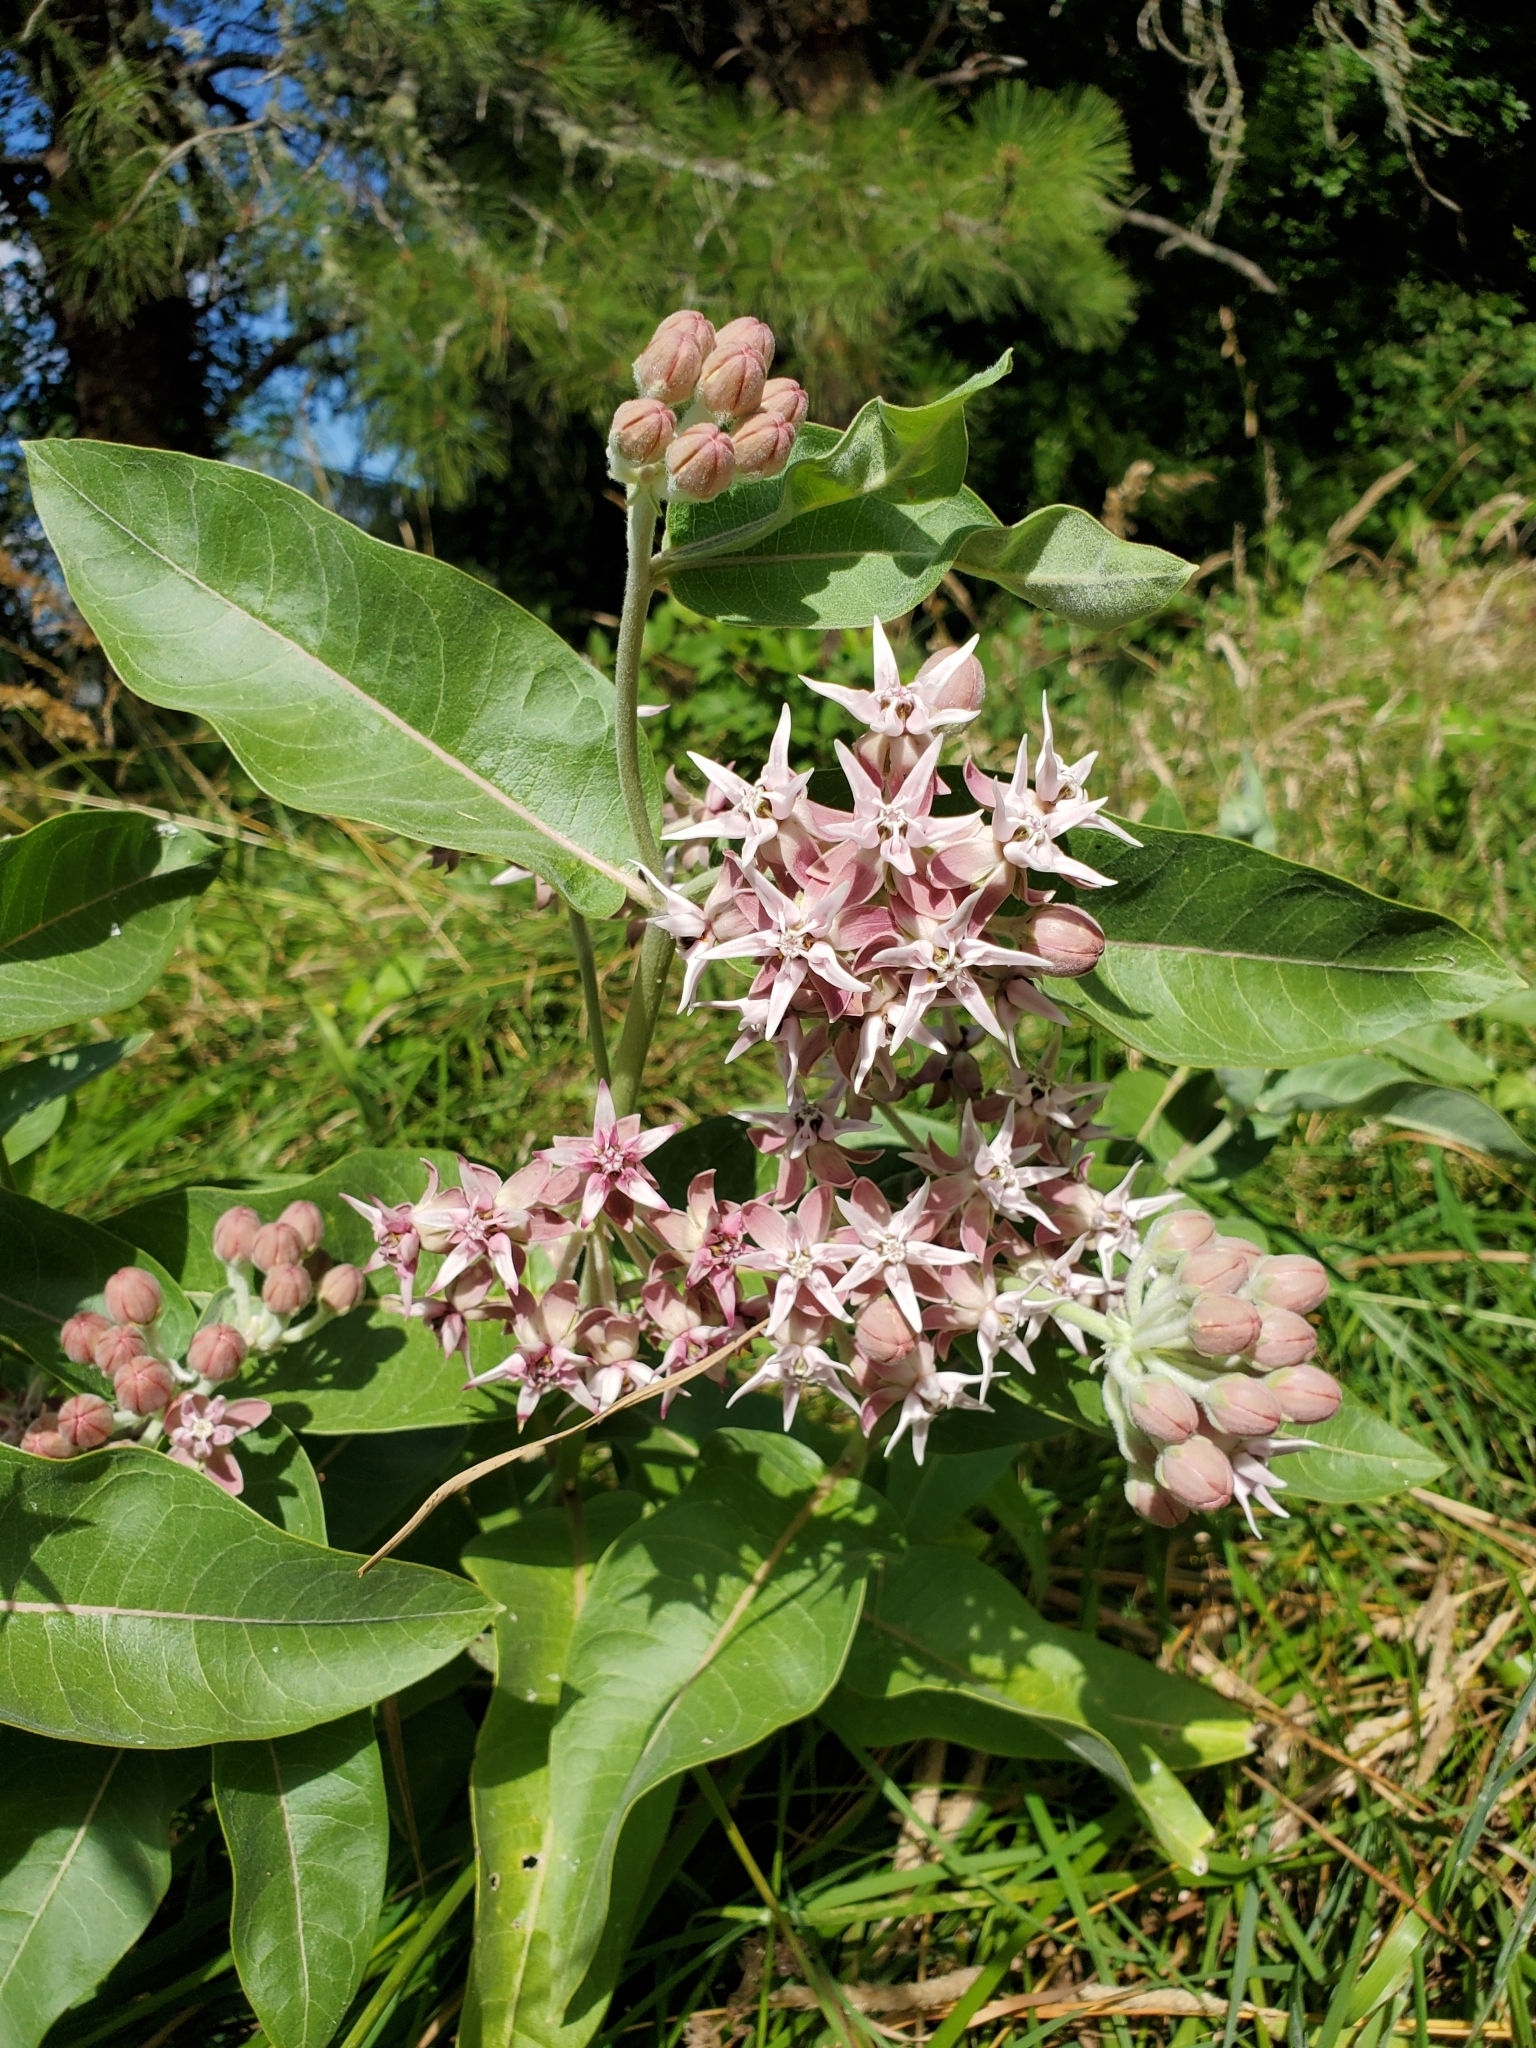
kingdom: Plantae
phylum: Tracheophyta
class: Magnoliopsida
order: Gentianales
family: Apocynaceae
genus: Asclepias
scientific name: Asclepias speciosa
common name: Showy milkweed
